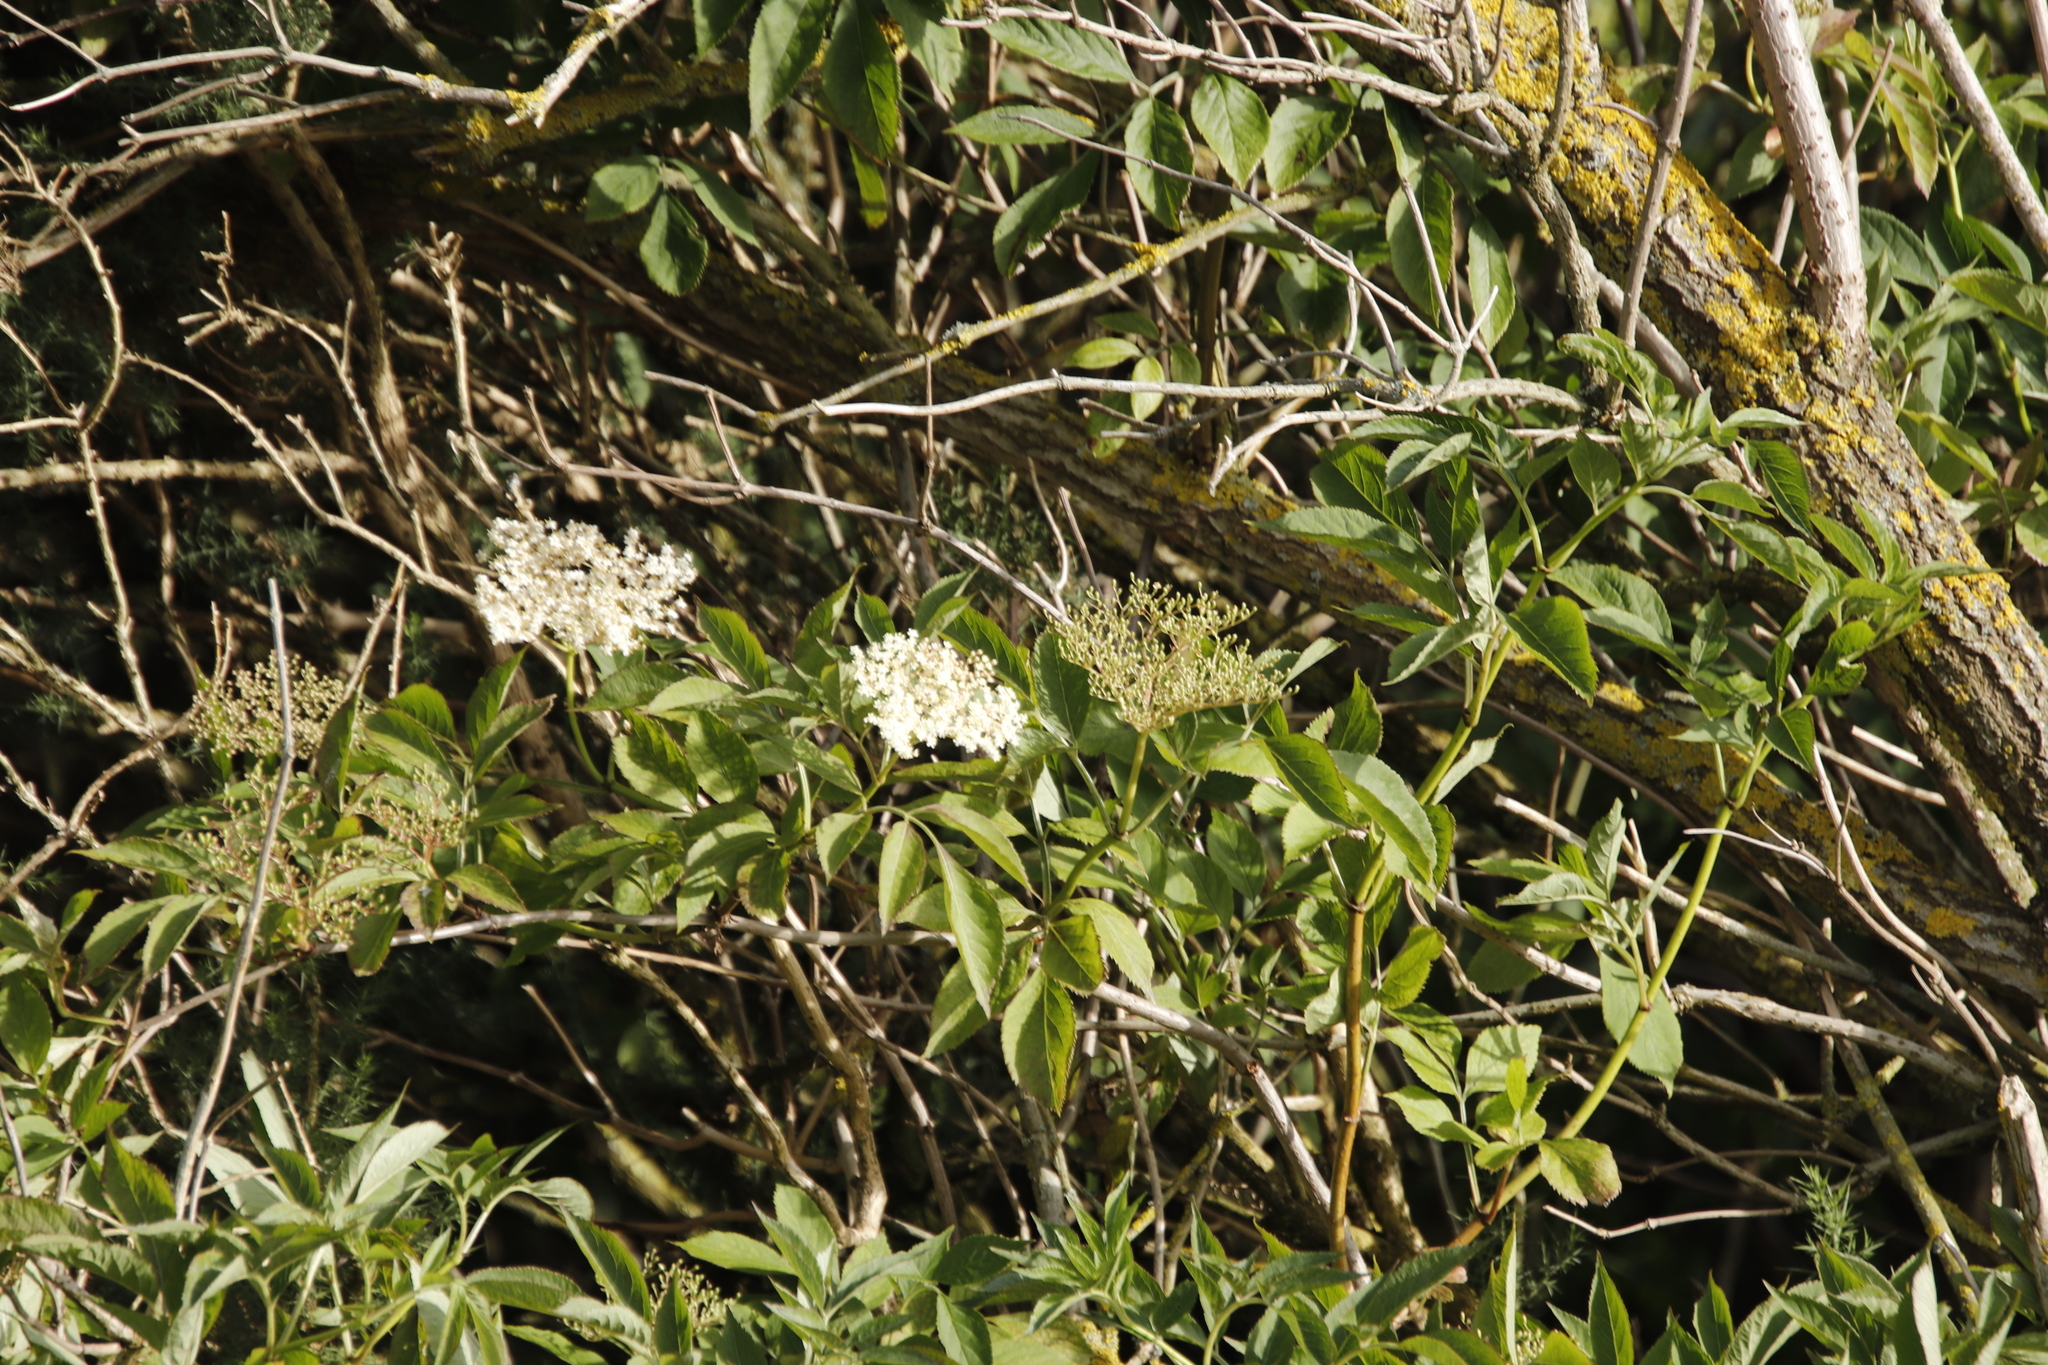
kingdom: Plantae
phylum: Tracheophyta
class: Magnoliopsida
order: Dipsacales
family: Viburnaceae
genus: Sambucus
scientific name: Sambucus nigra
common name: Elder
